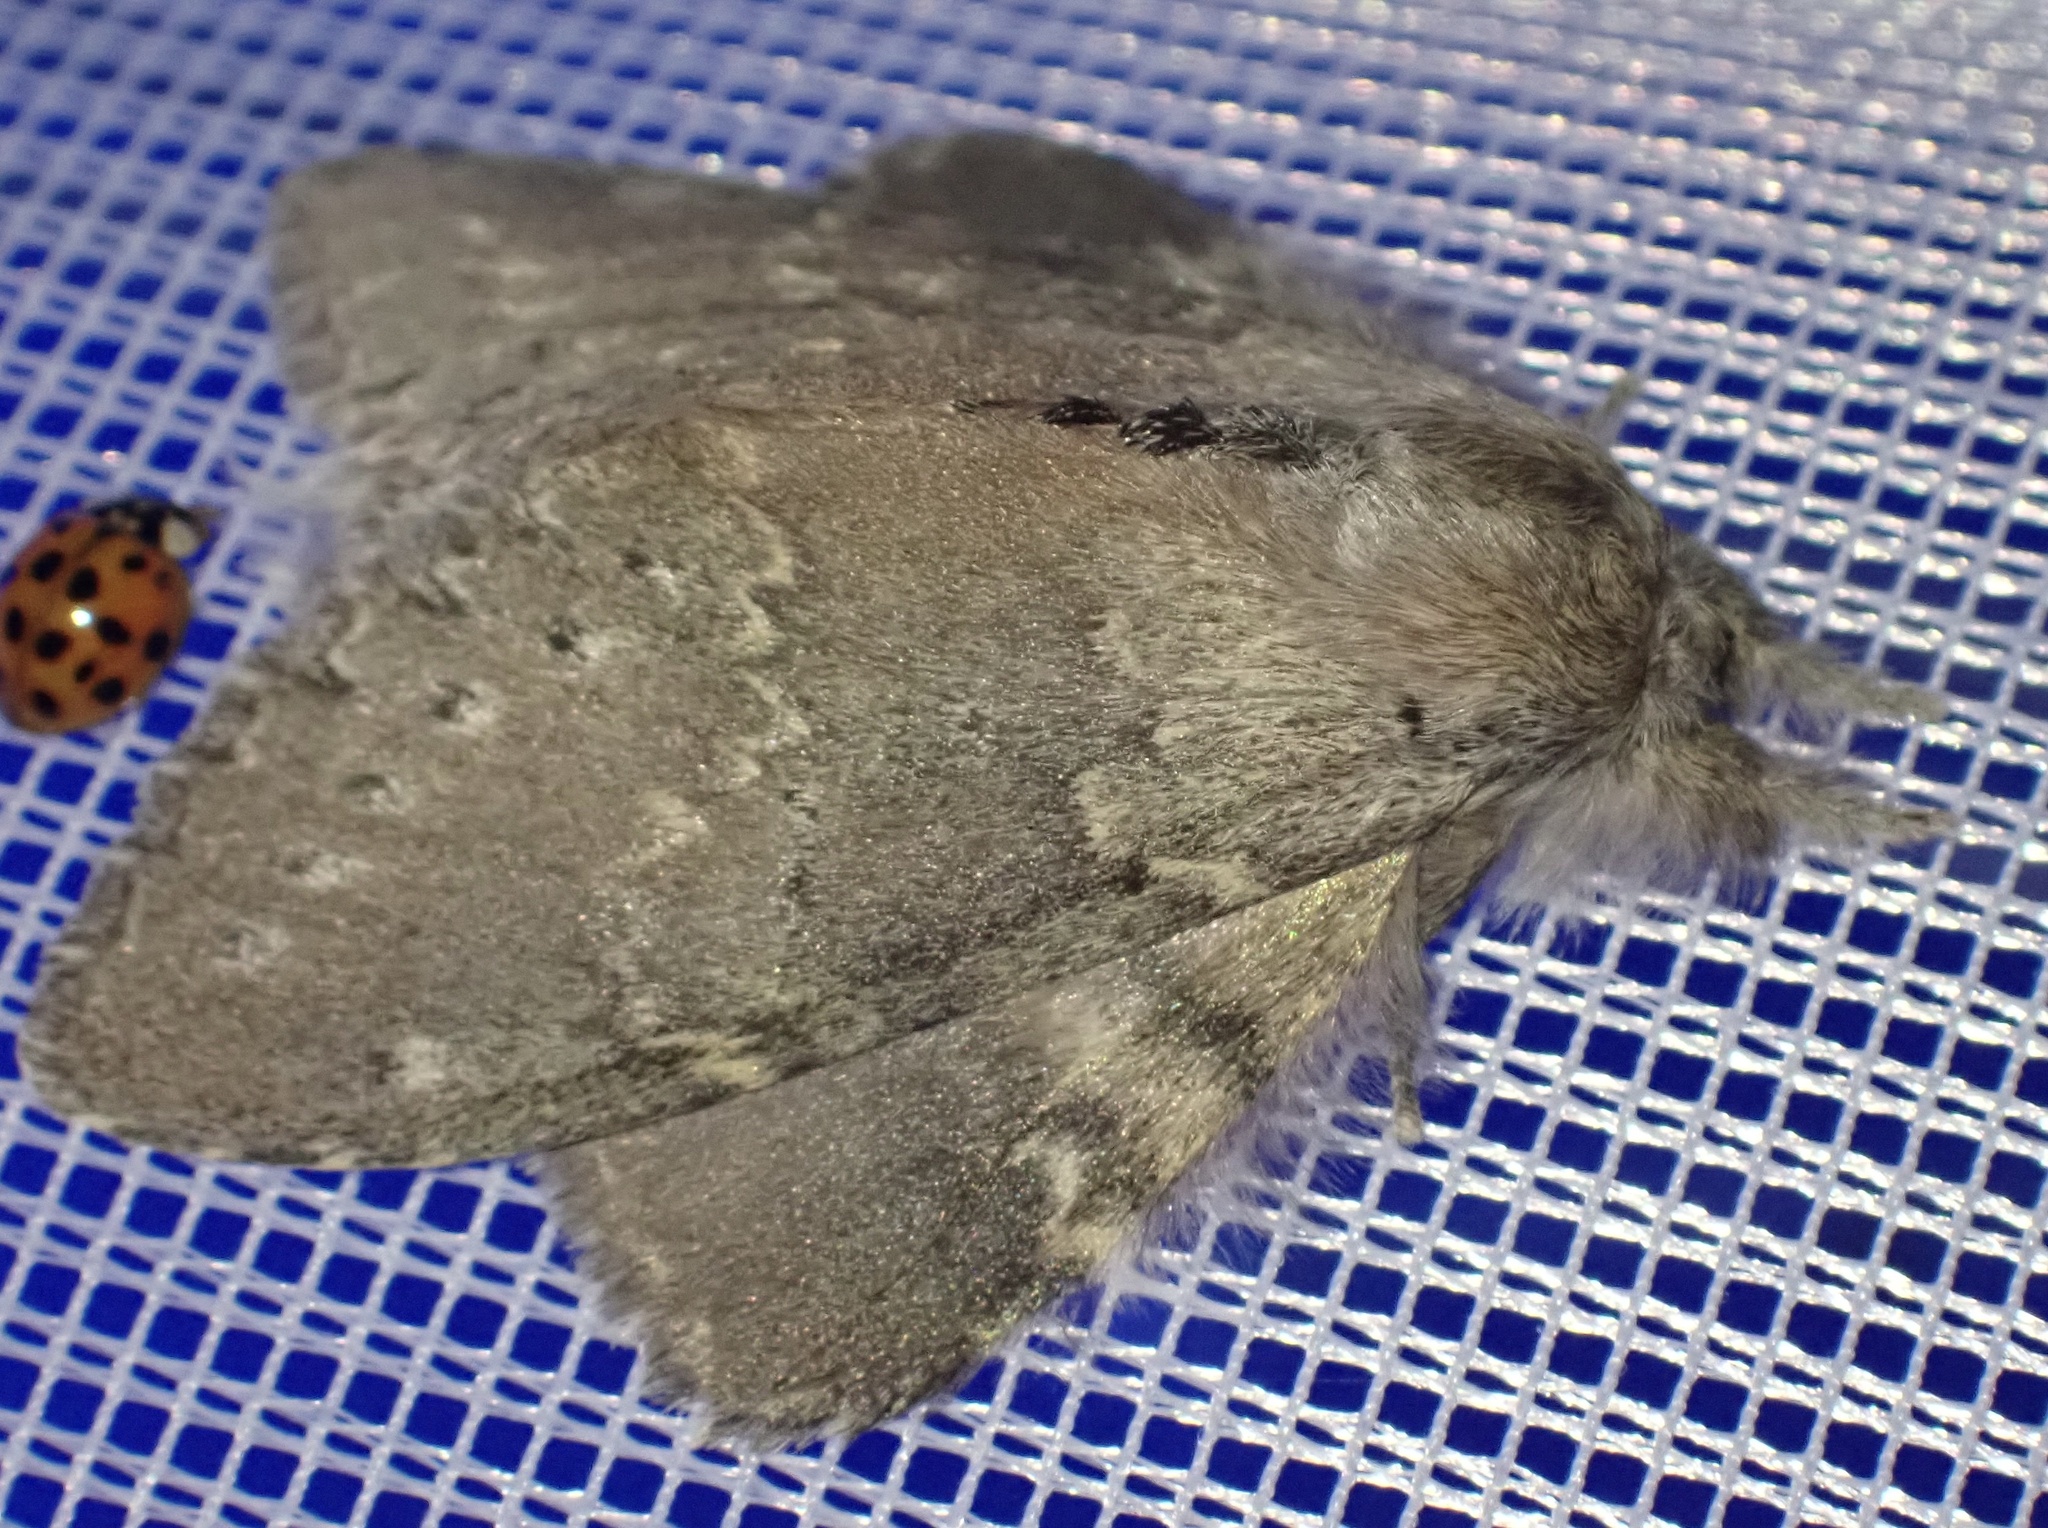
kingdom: Animalia
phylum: Arthropoda
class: Insecta
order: Lepidoptera
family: Notodontidae
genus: Stauropus
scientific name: Stauropus fagi
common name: Lobster moth
